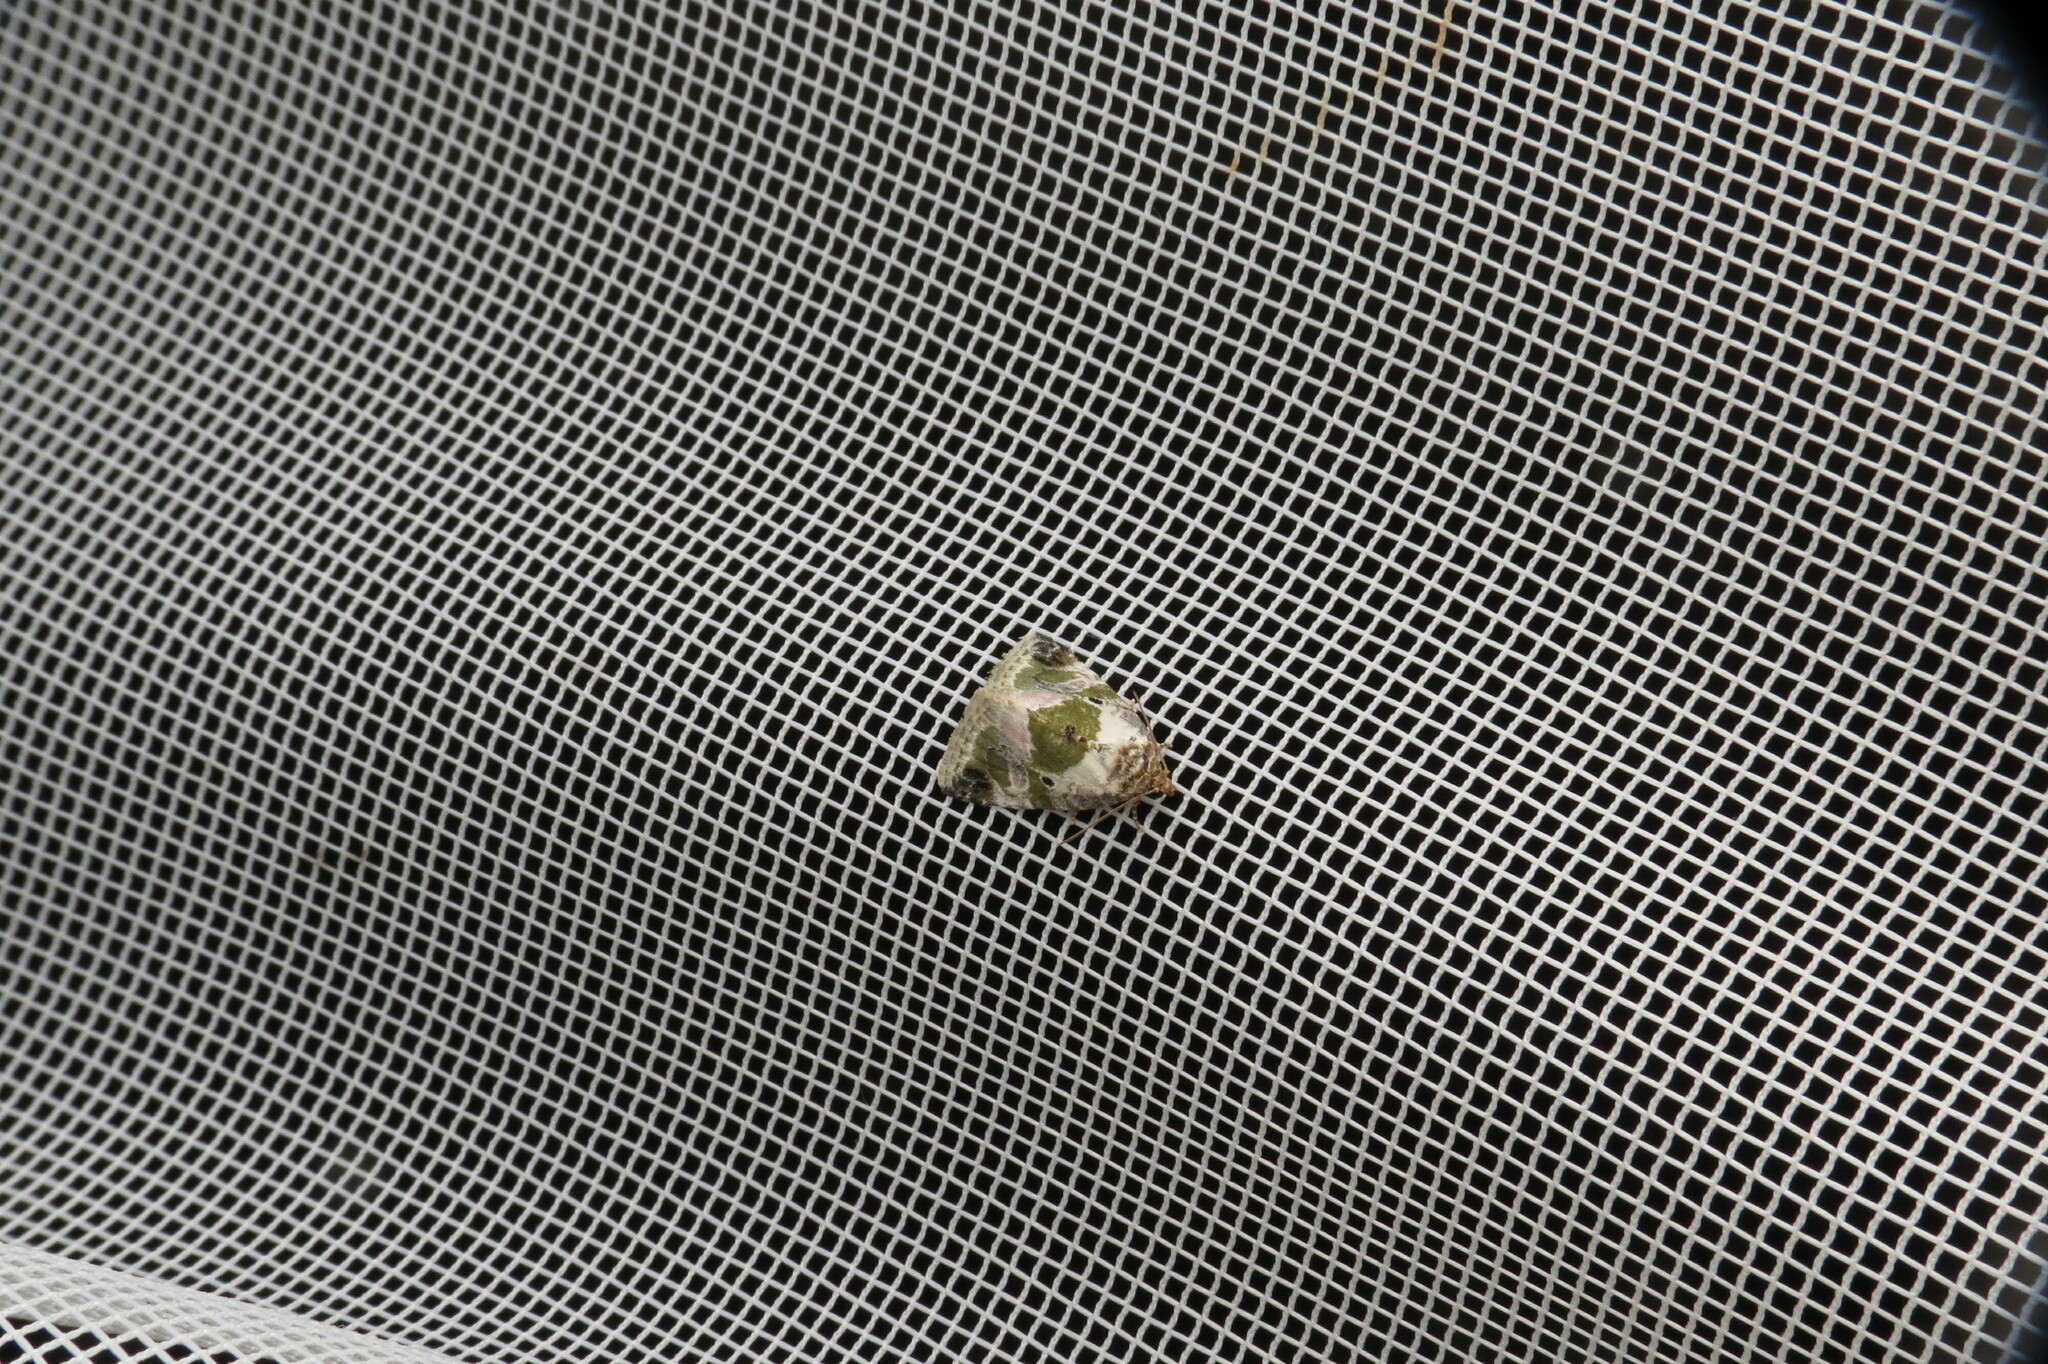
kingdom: Animalia
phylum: Arthropoda
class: Insecta
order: Lepidoptera
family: Noctuidae
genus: Maliattha
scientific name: Maliattha synochitis
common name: Black-dotted glyph
